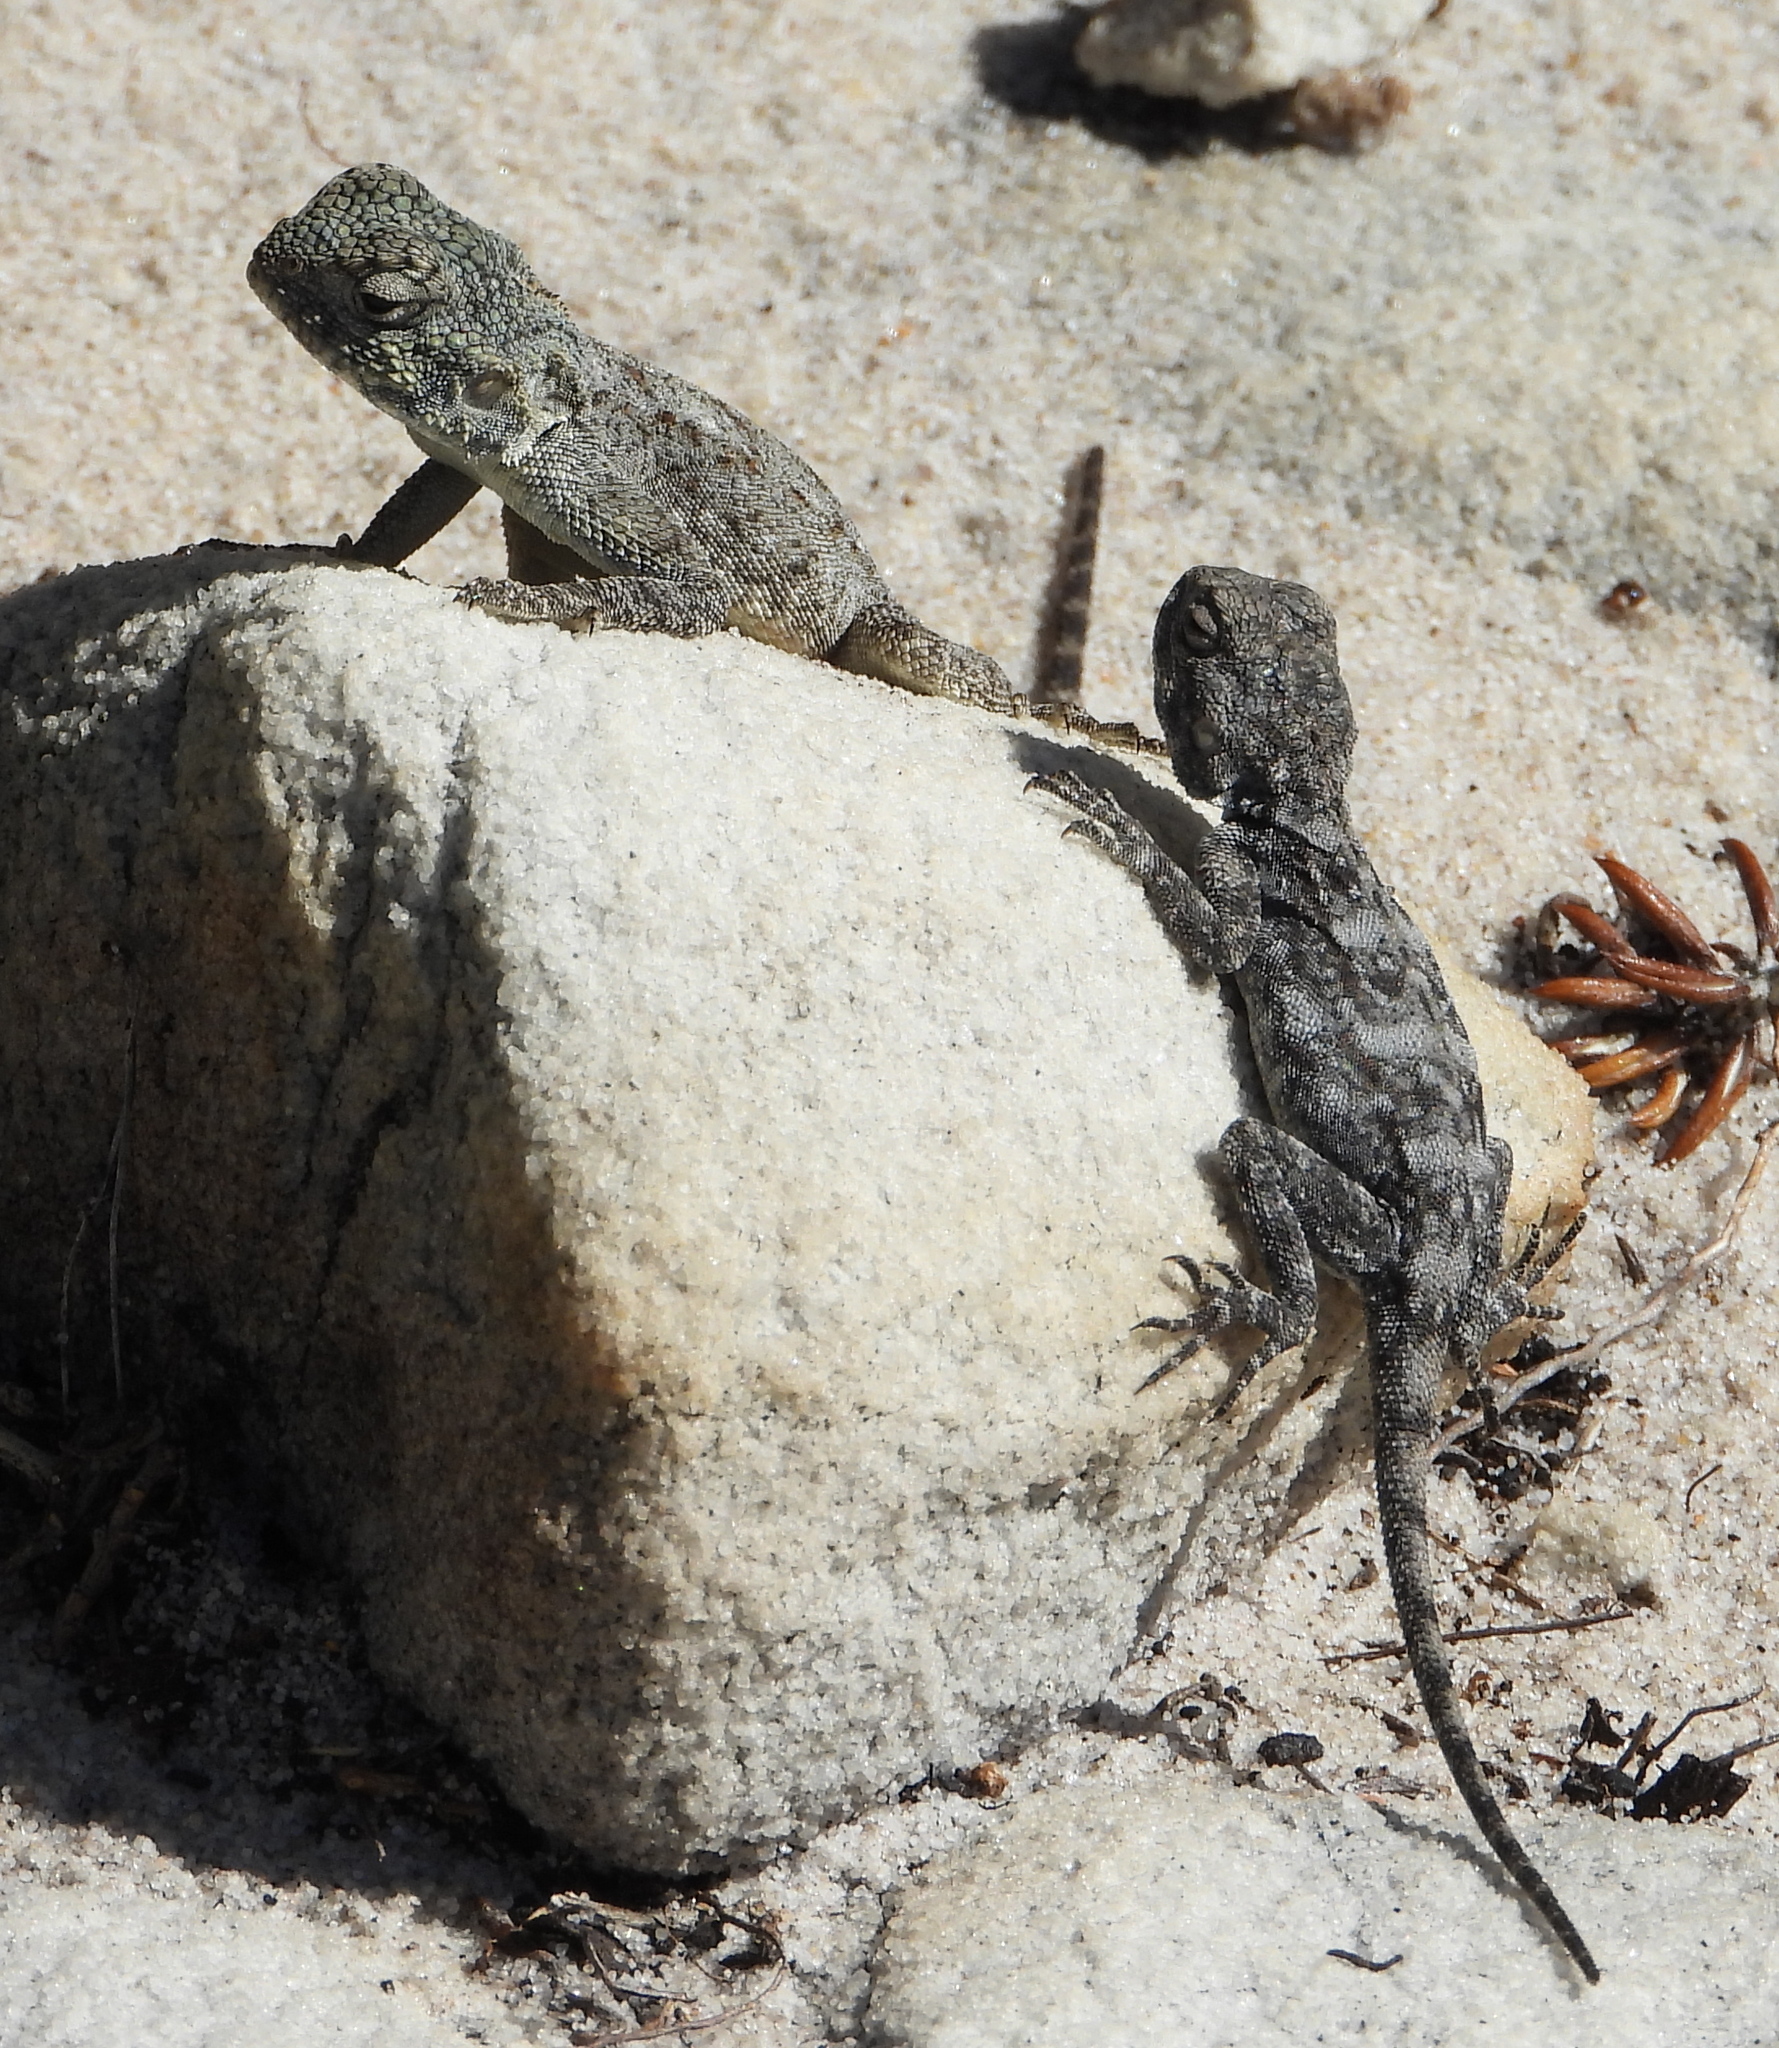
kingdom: Animalia
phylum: Chordata
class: Squamata
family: Agamidae
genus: Agama
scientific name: Agama atra
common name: Southern african rock agama
